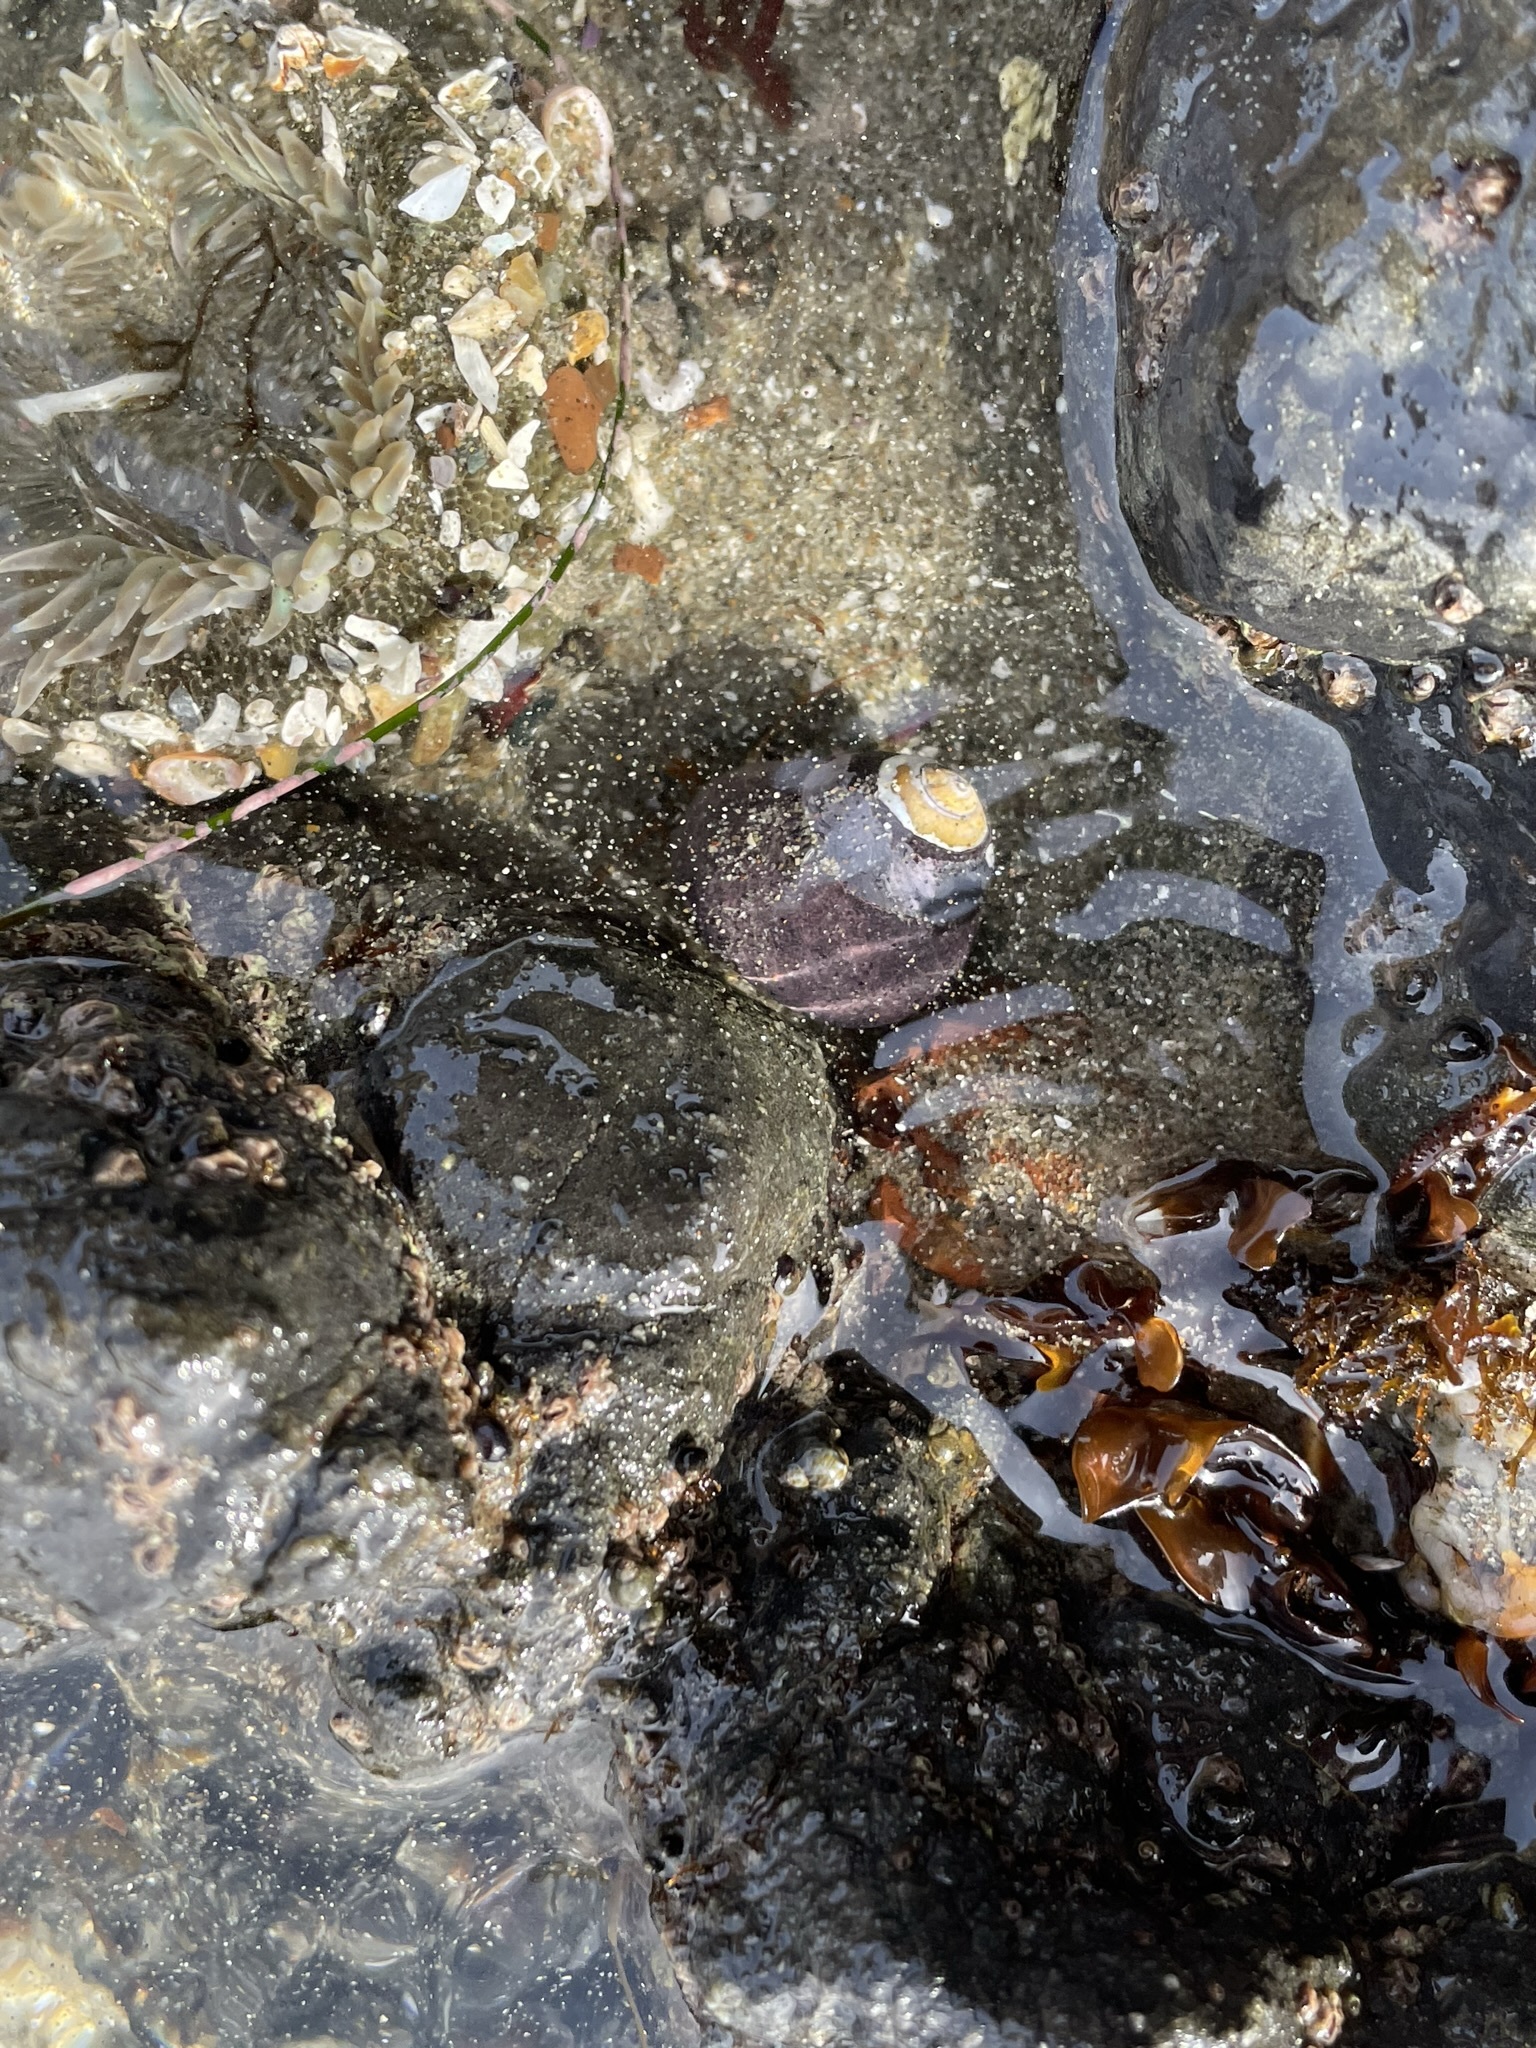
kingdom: Animalia
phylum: Mollusca
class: Gastropoda
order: Trochida
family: Tegulidae
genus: Tegula
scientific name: Tegula funebralis
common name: Black tegula
